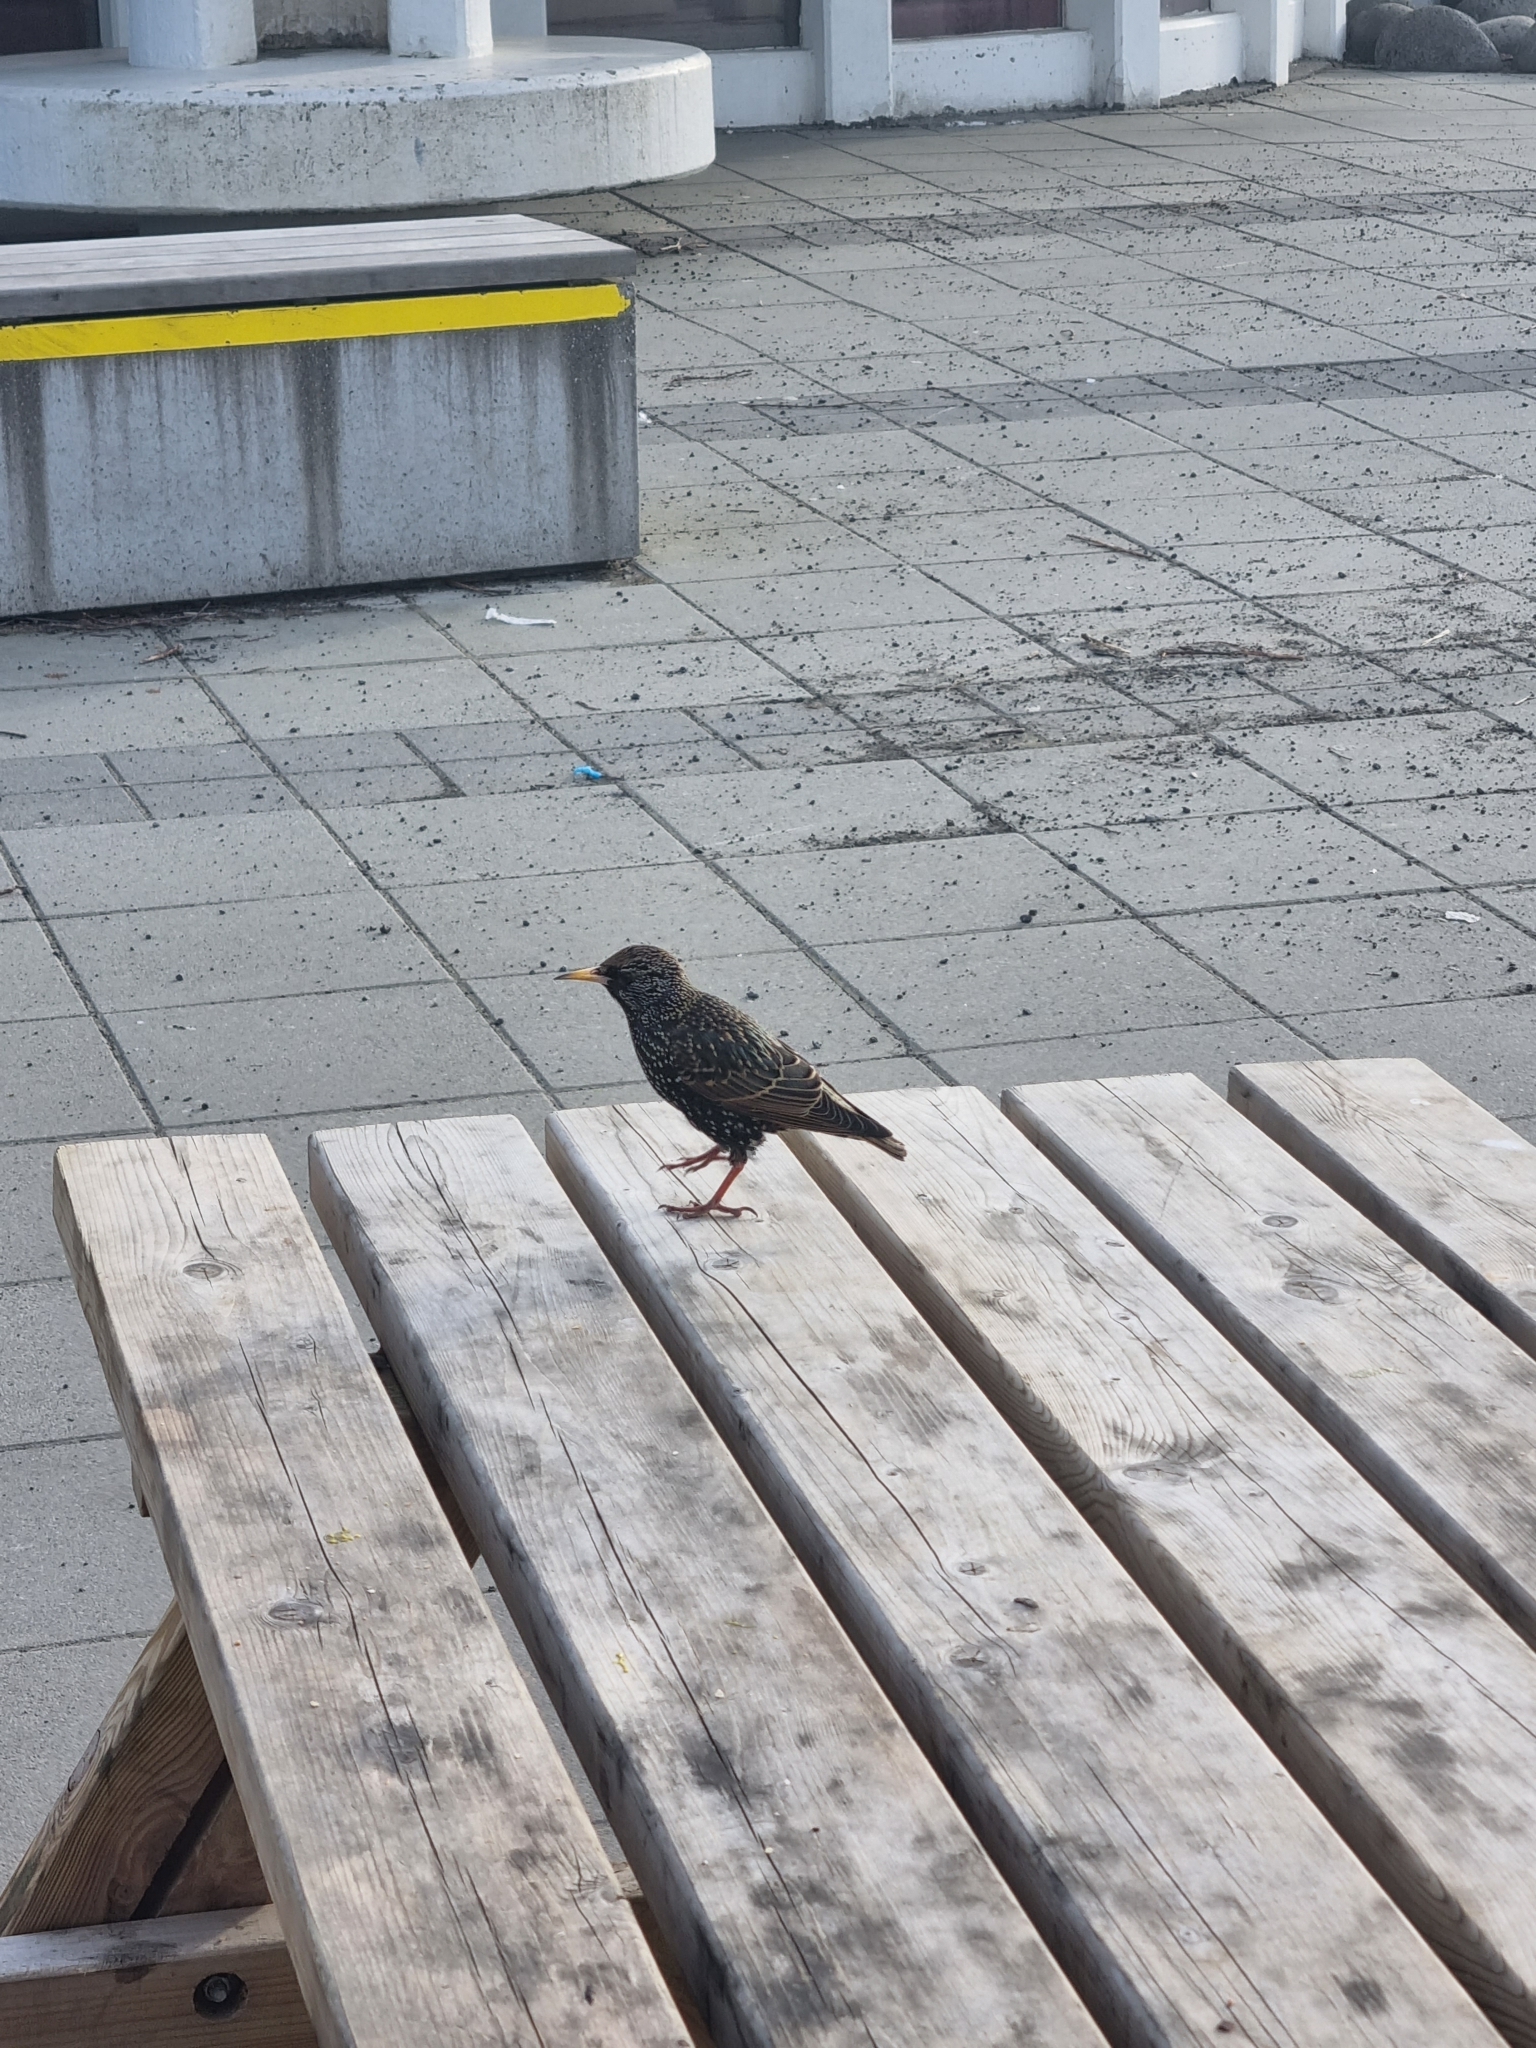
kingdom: Animalia
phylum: Chordata
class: Aves
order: Passeriformes
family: Sturnidae
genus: Sturnus
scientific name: Sturnus vulgaris
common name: Common starling
